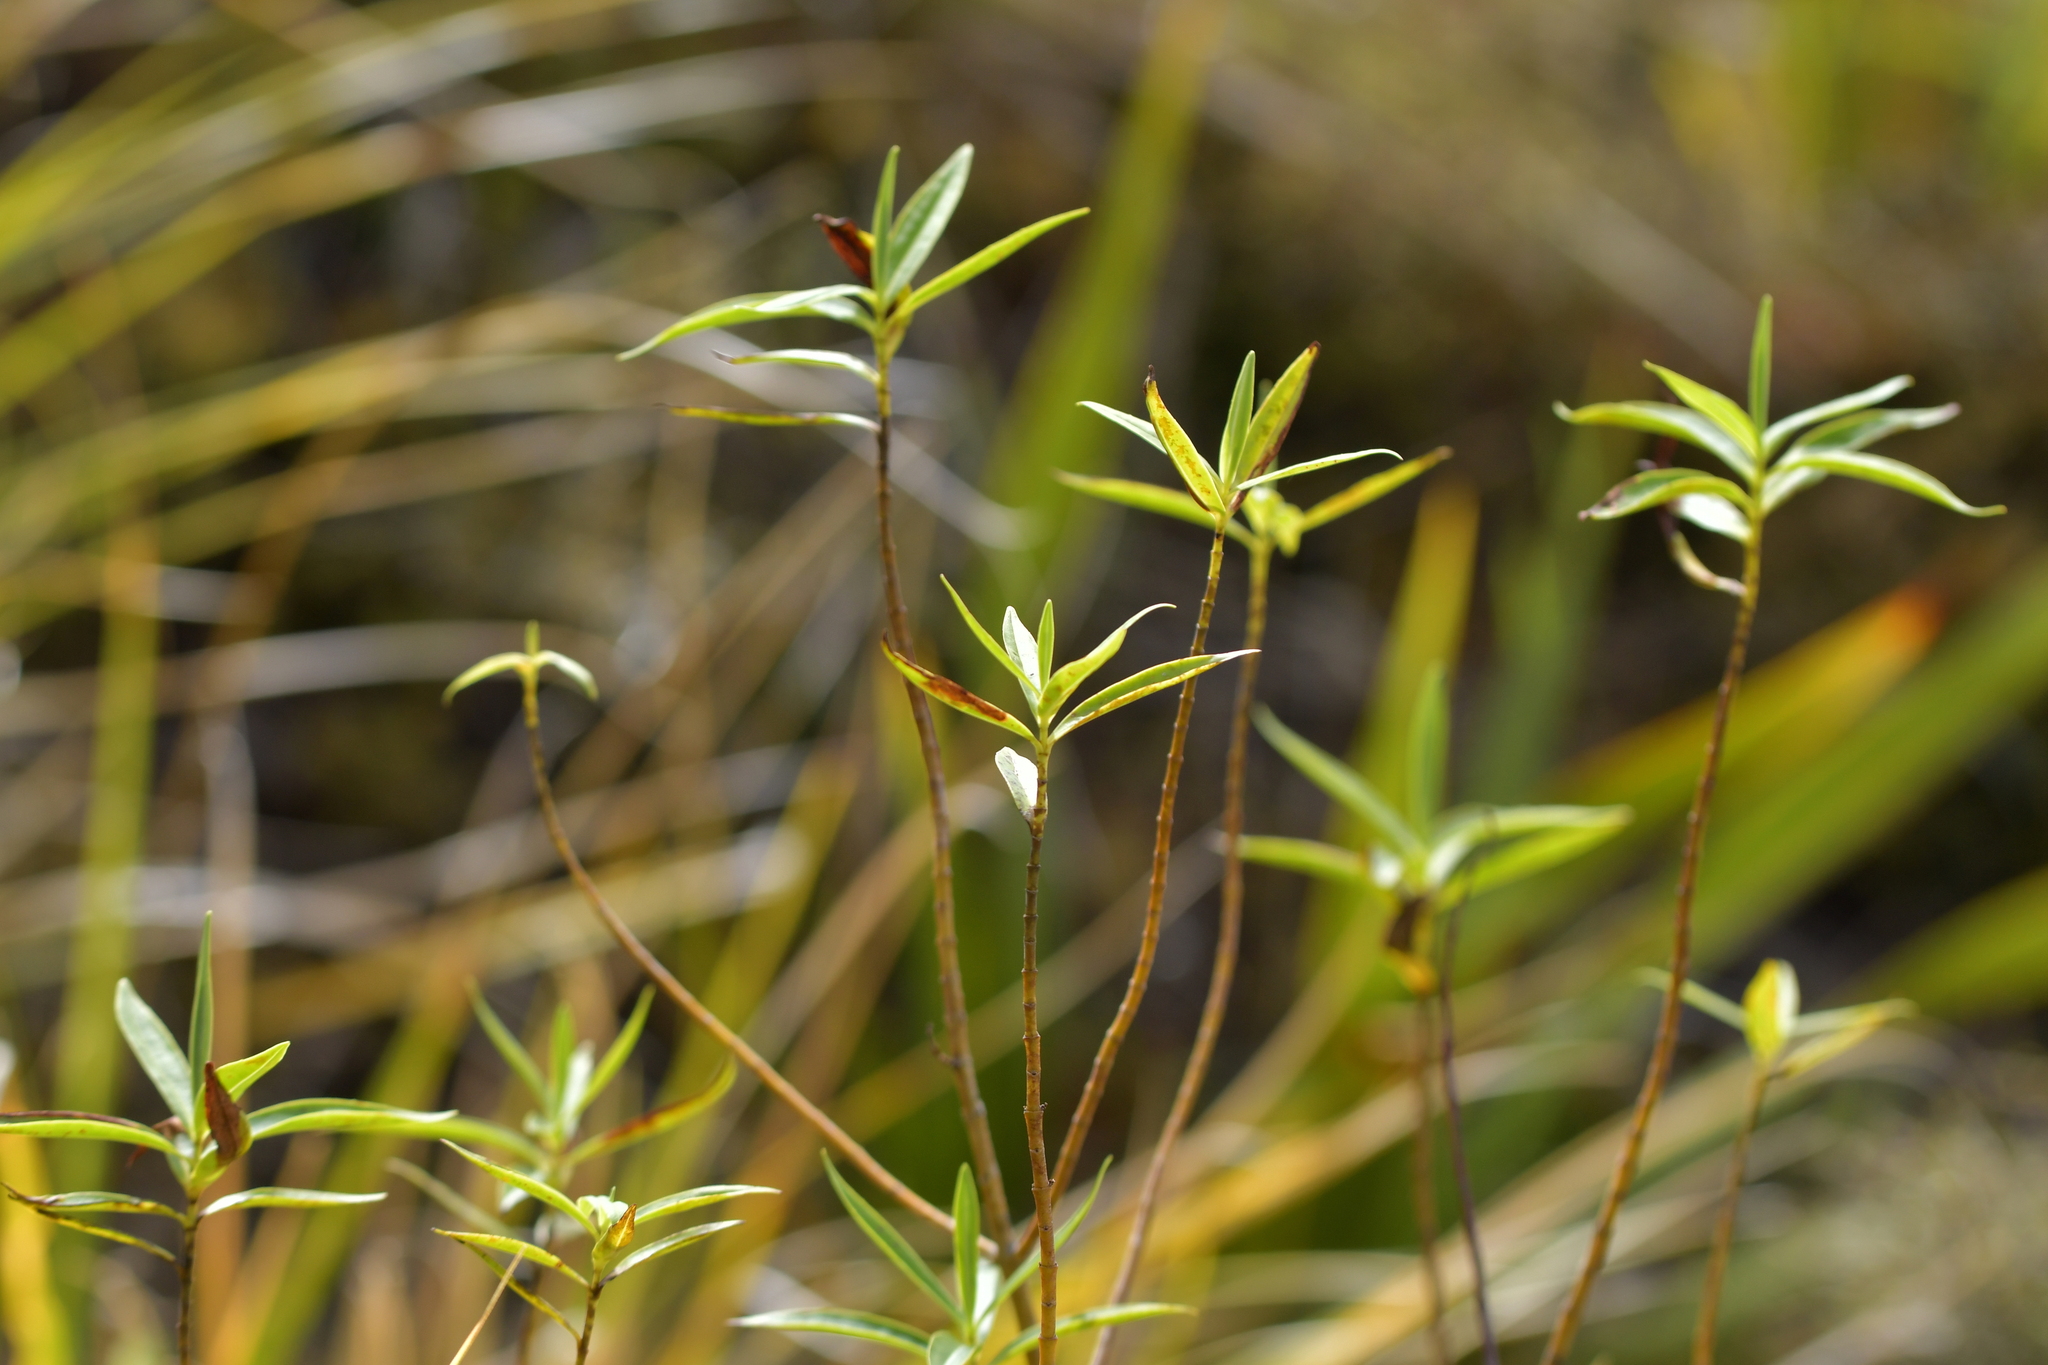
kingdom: Plantae
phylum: Tracheophyta
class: Magnoliopsida
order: Lamiales
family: Plantaginaceae
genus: Veronica
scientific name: Veronica stricta
